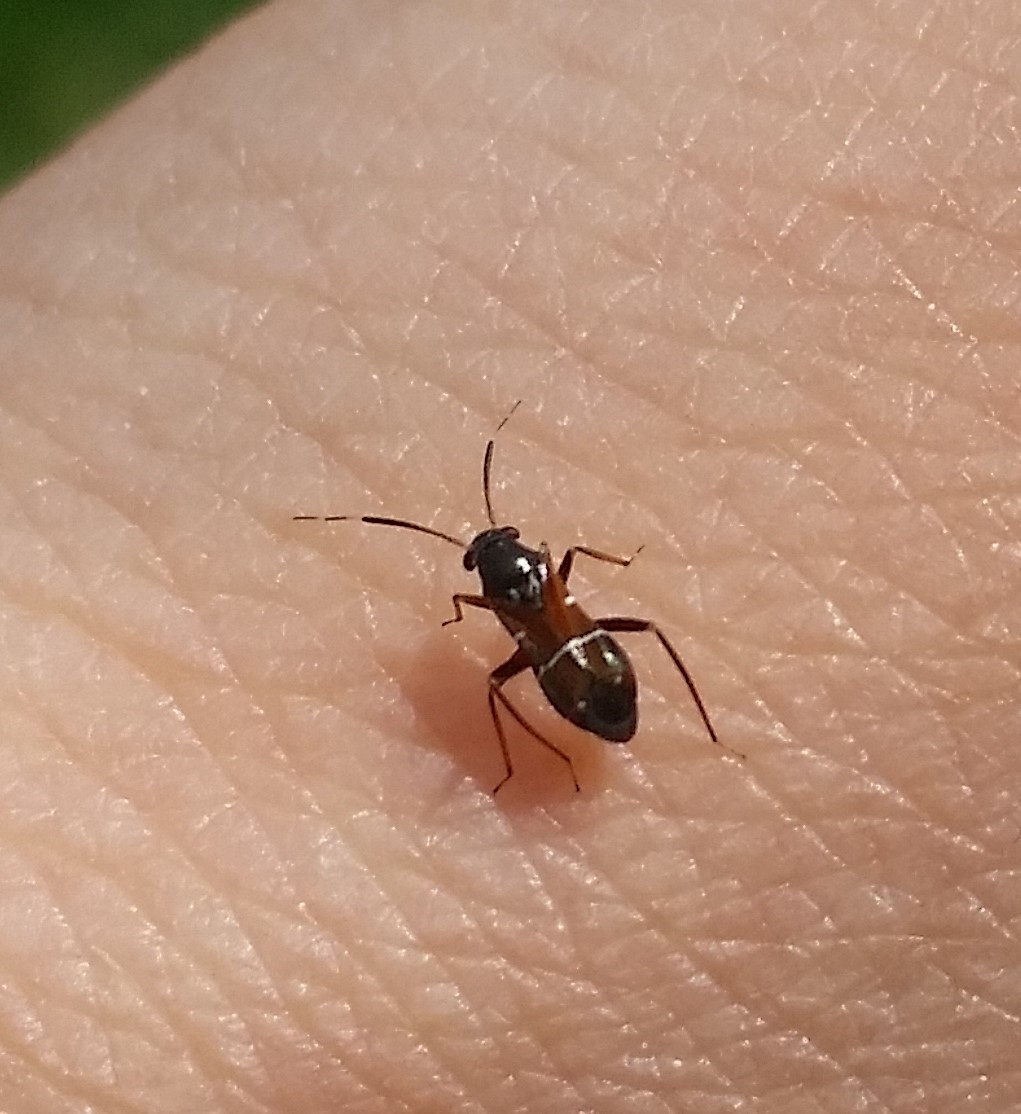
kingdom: Animalia
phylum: Arthropoda
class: Insecta
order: Hemiptera
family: Miridae
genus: Pilophorus
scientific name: Pilophorus
